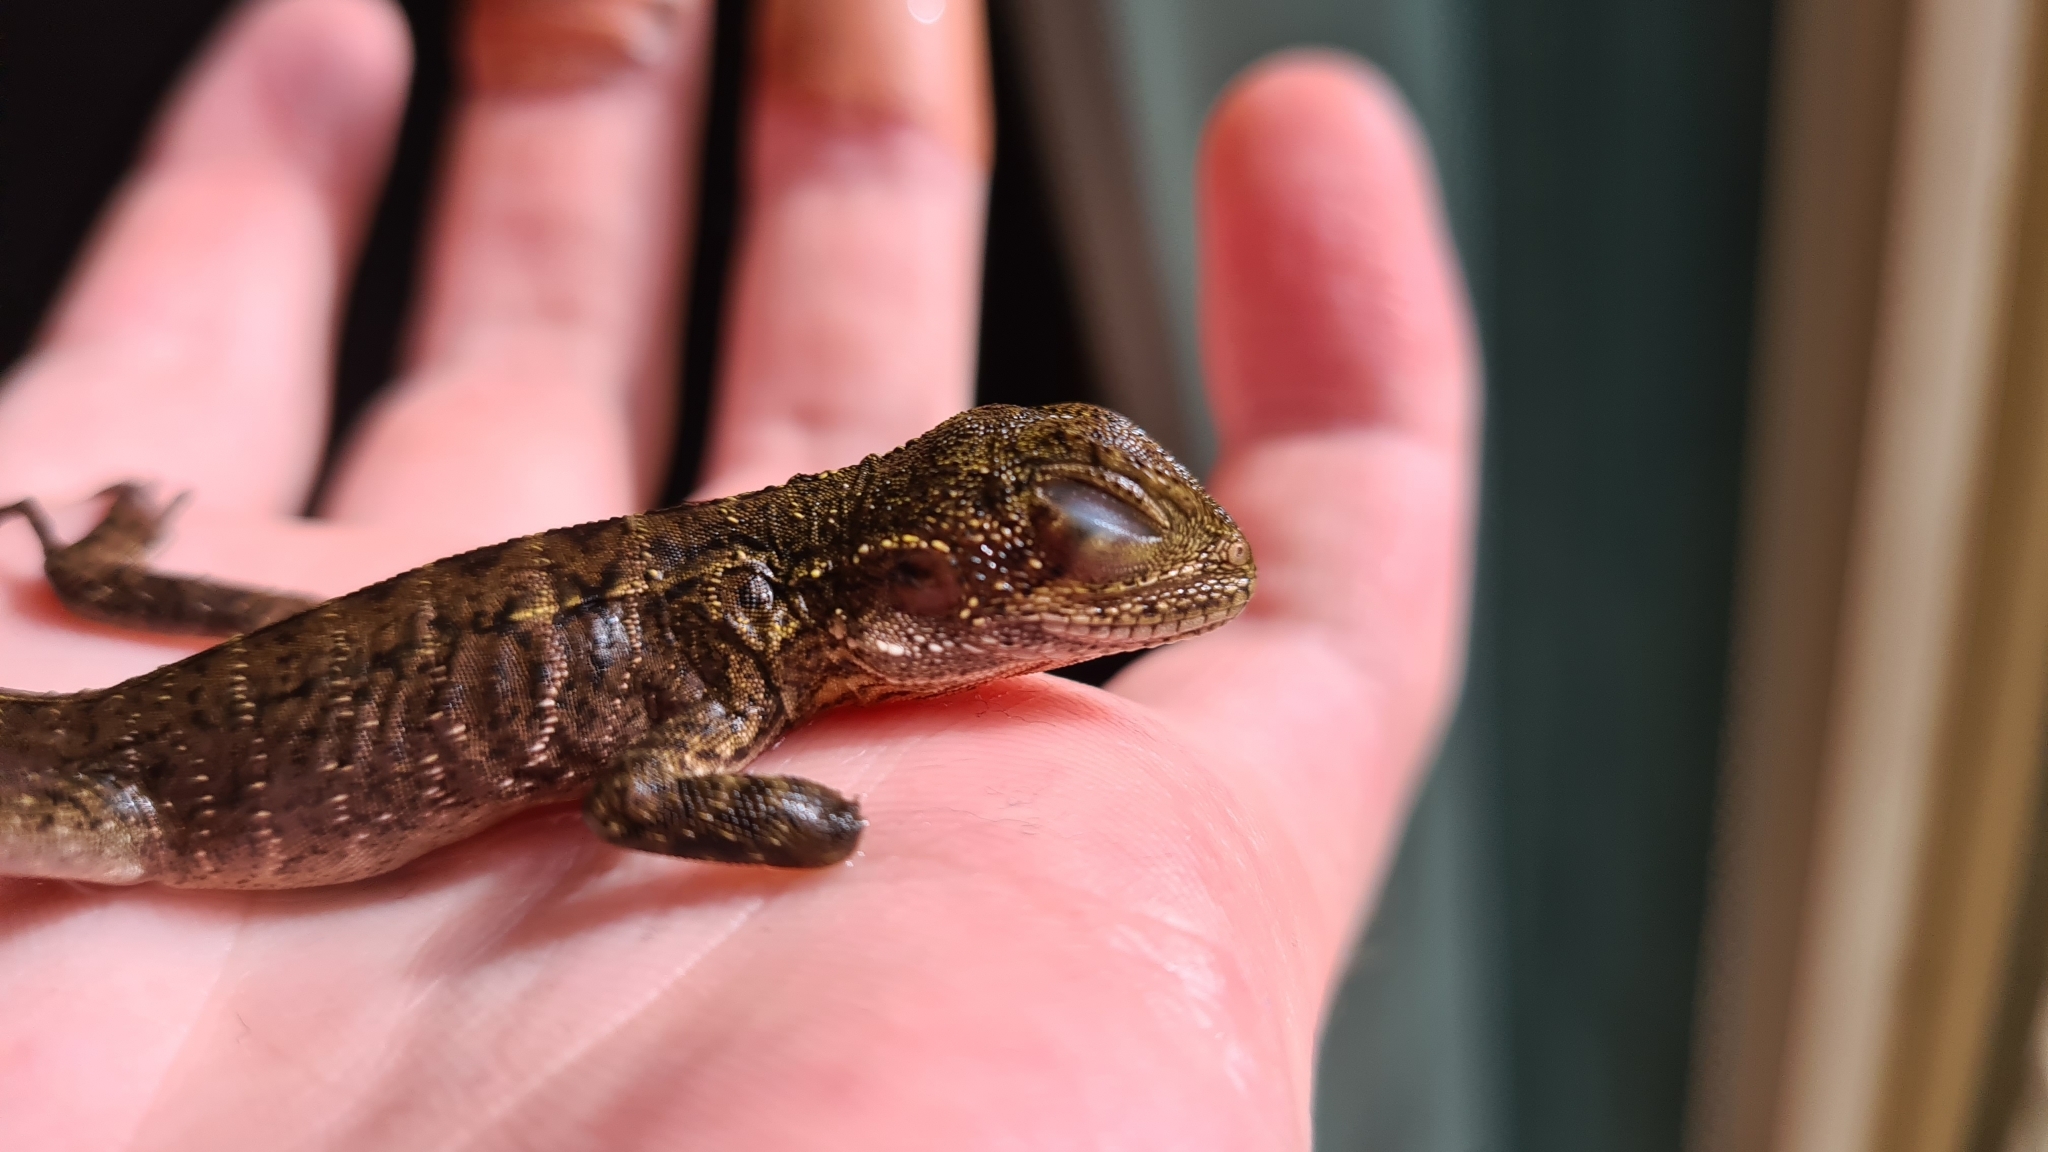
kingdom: Animalia
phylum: Chordata
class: Squamata
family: Agamidae
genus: Intellagama
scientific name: Intellagama lesueurii
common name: Eastern water dragon
